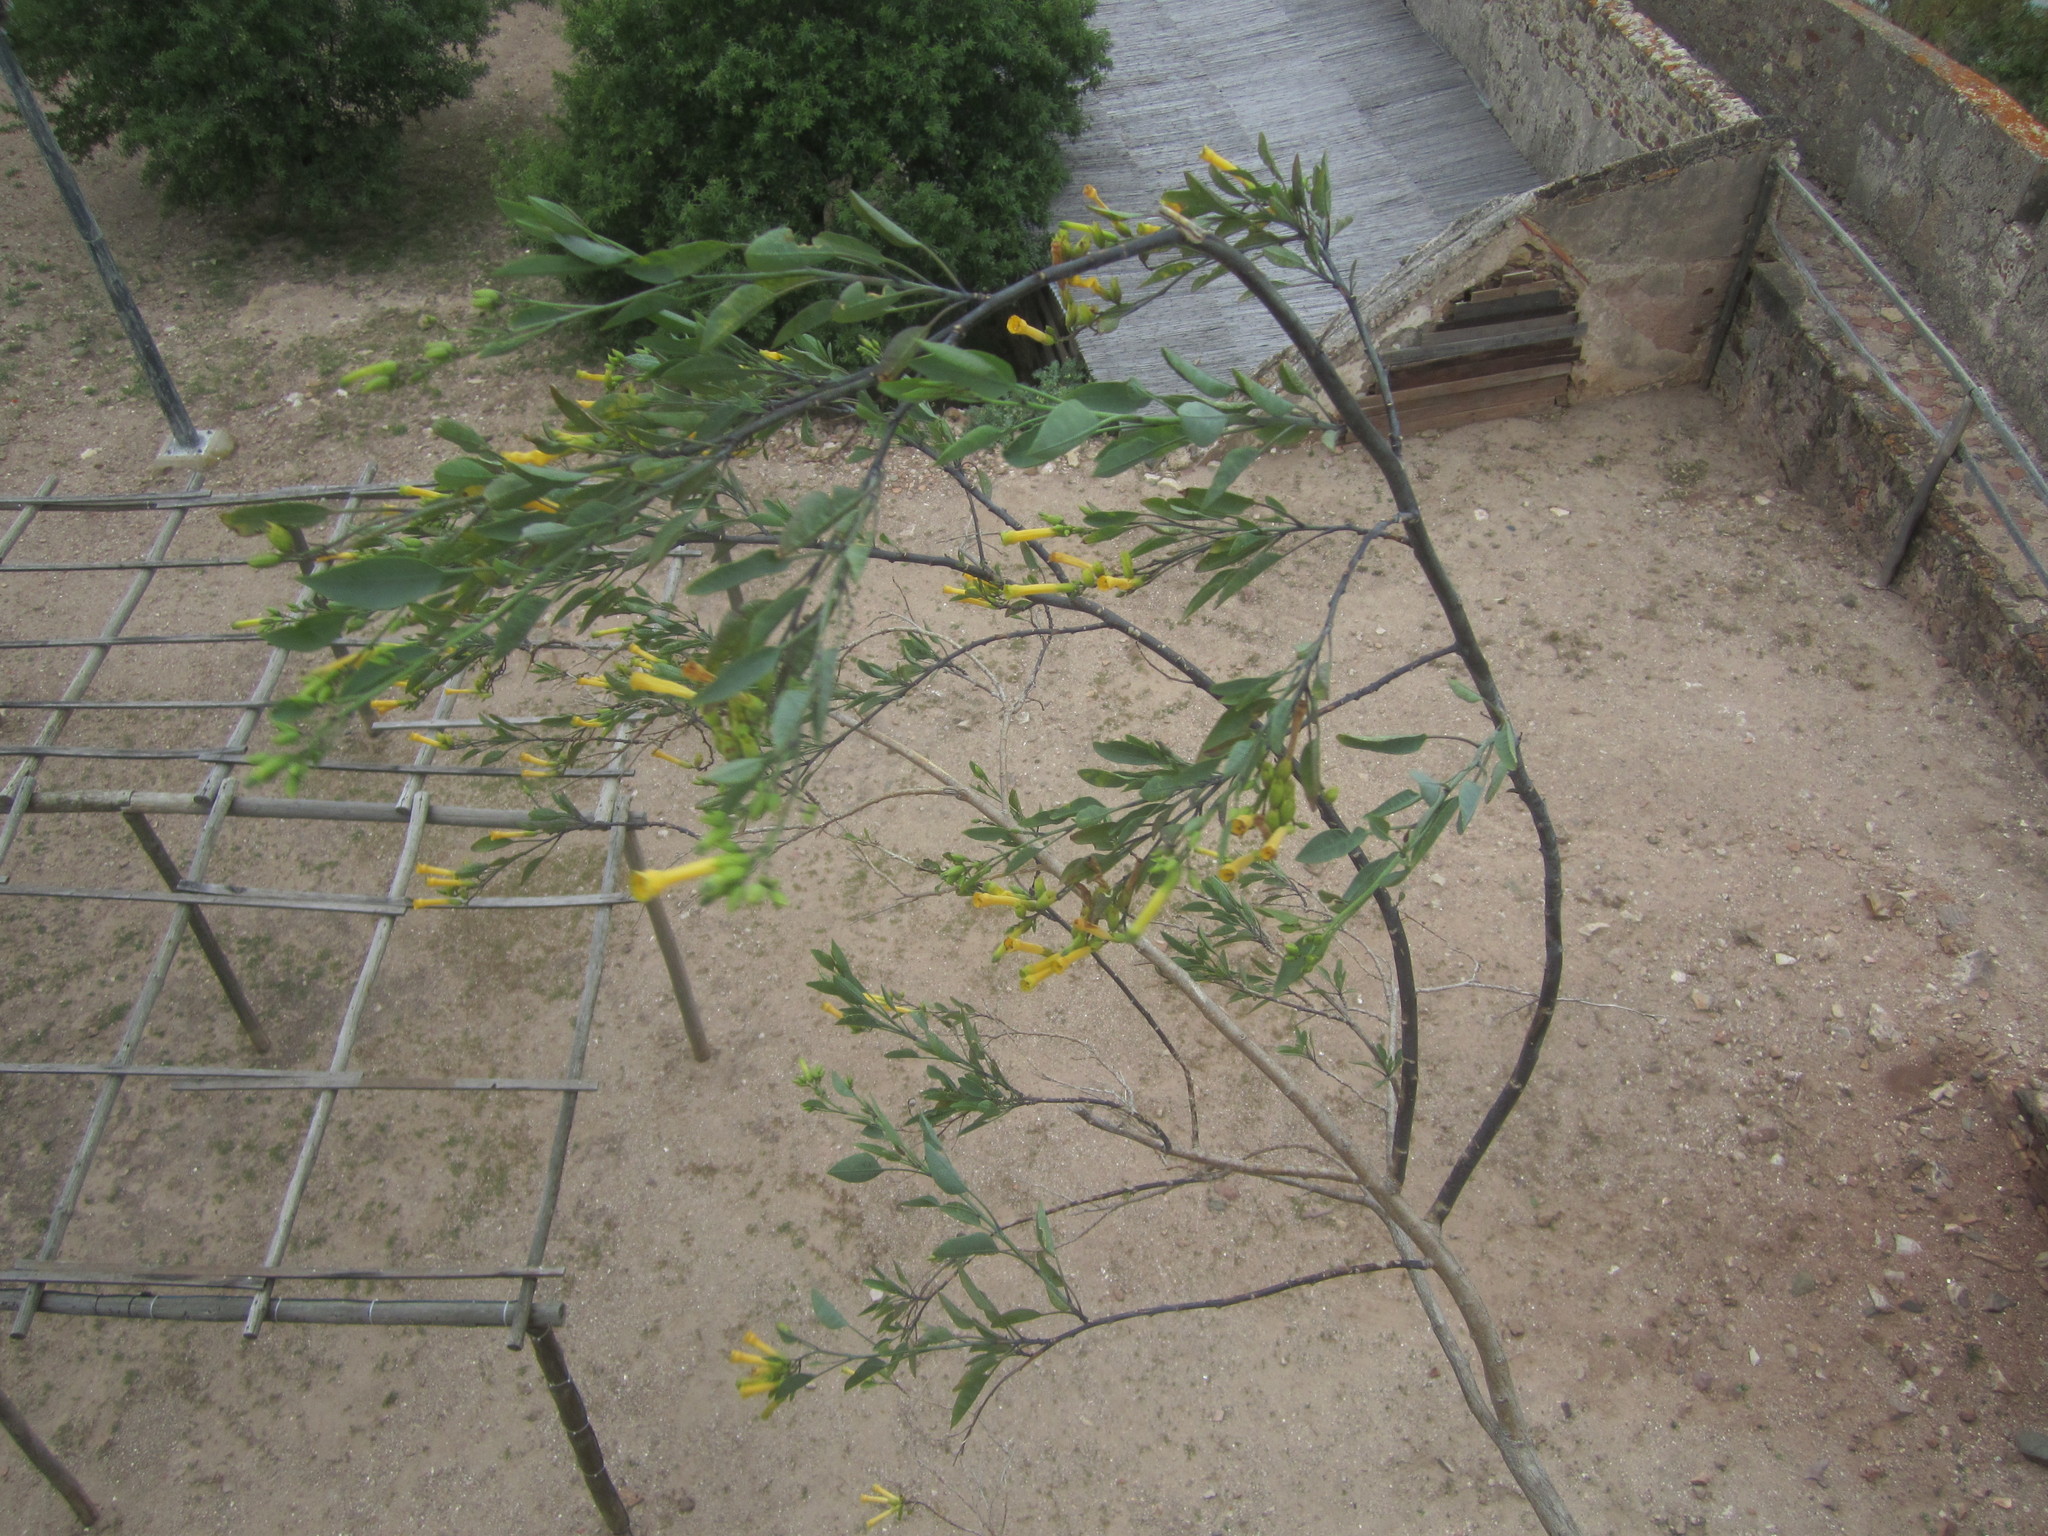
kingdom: Plantae
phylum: Tracheophyta
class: Magnoliopsida
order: Solanales
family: Solanaceae
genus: Nicotiana
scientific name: Nicotiana glauca
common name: Tree tobacco
